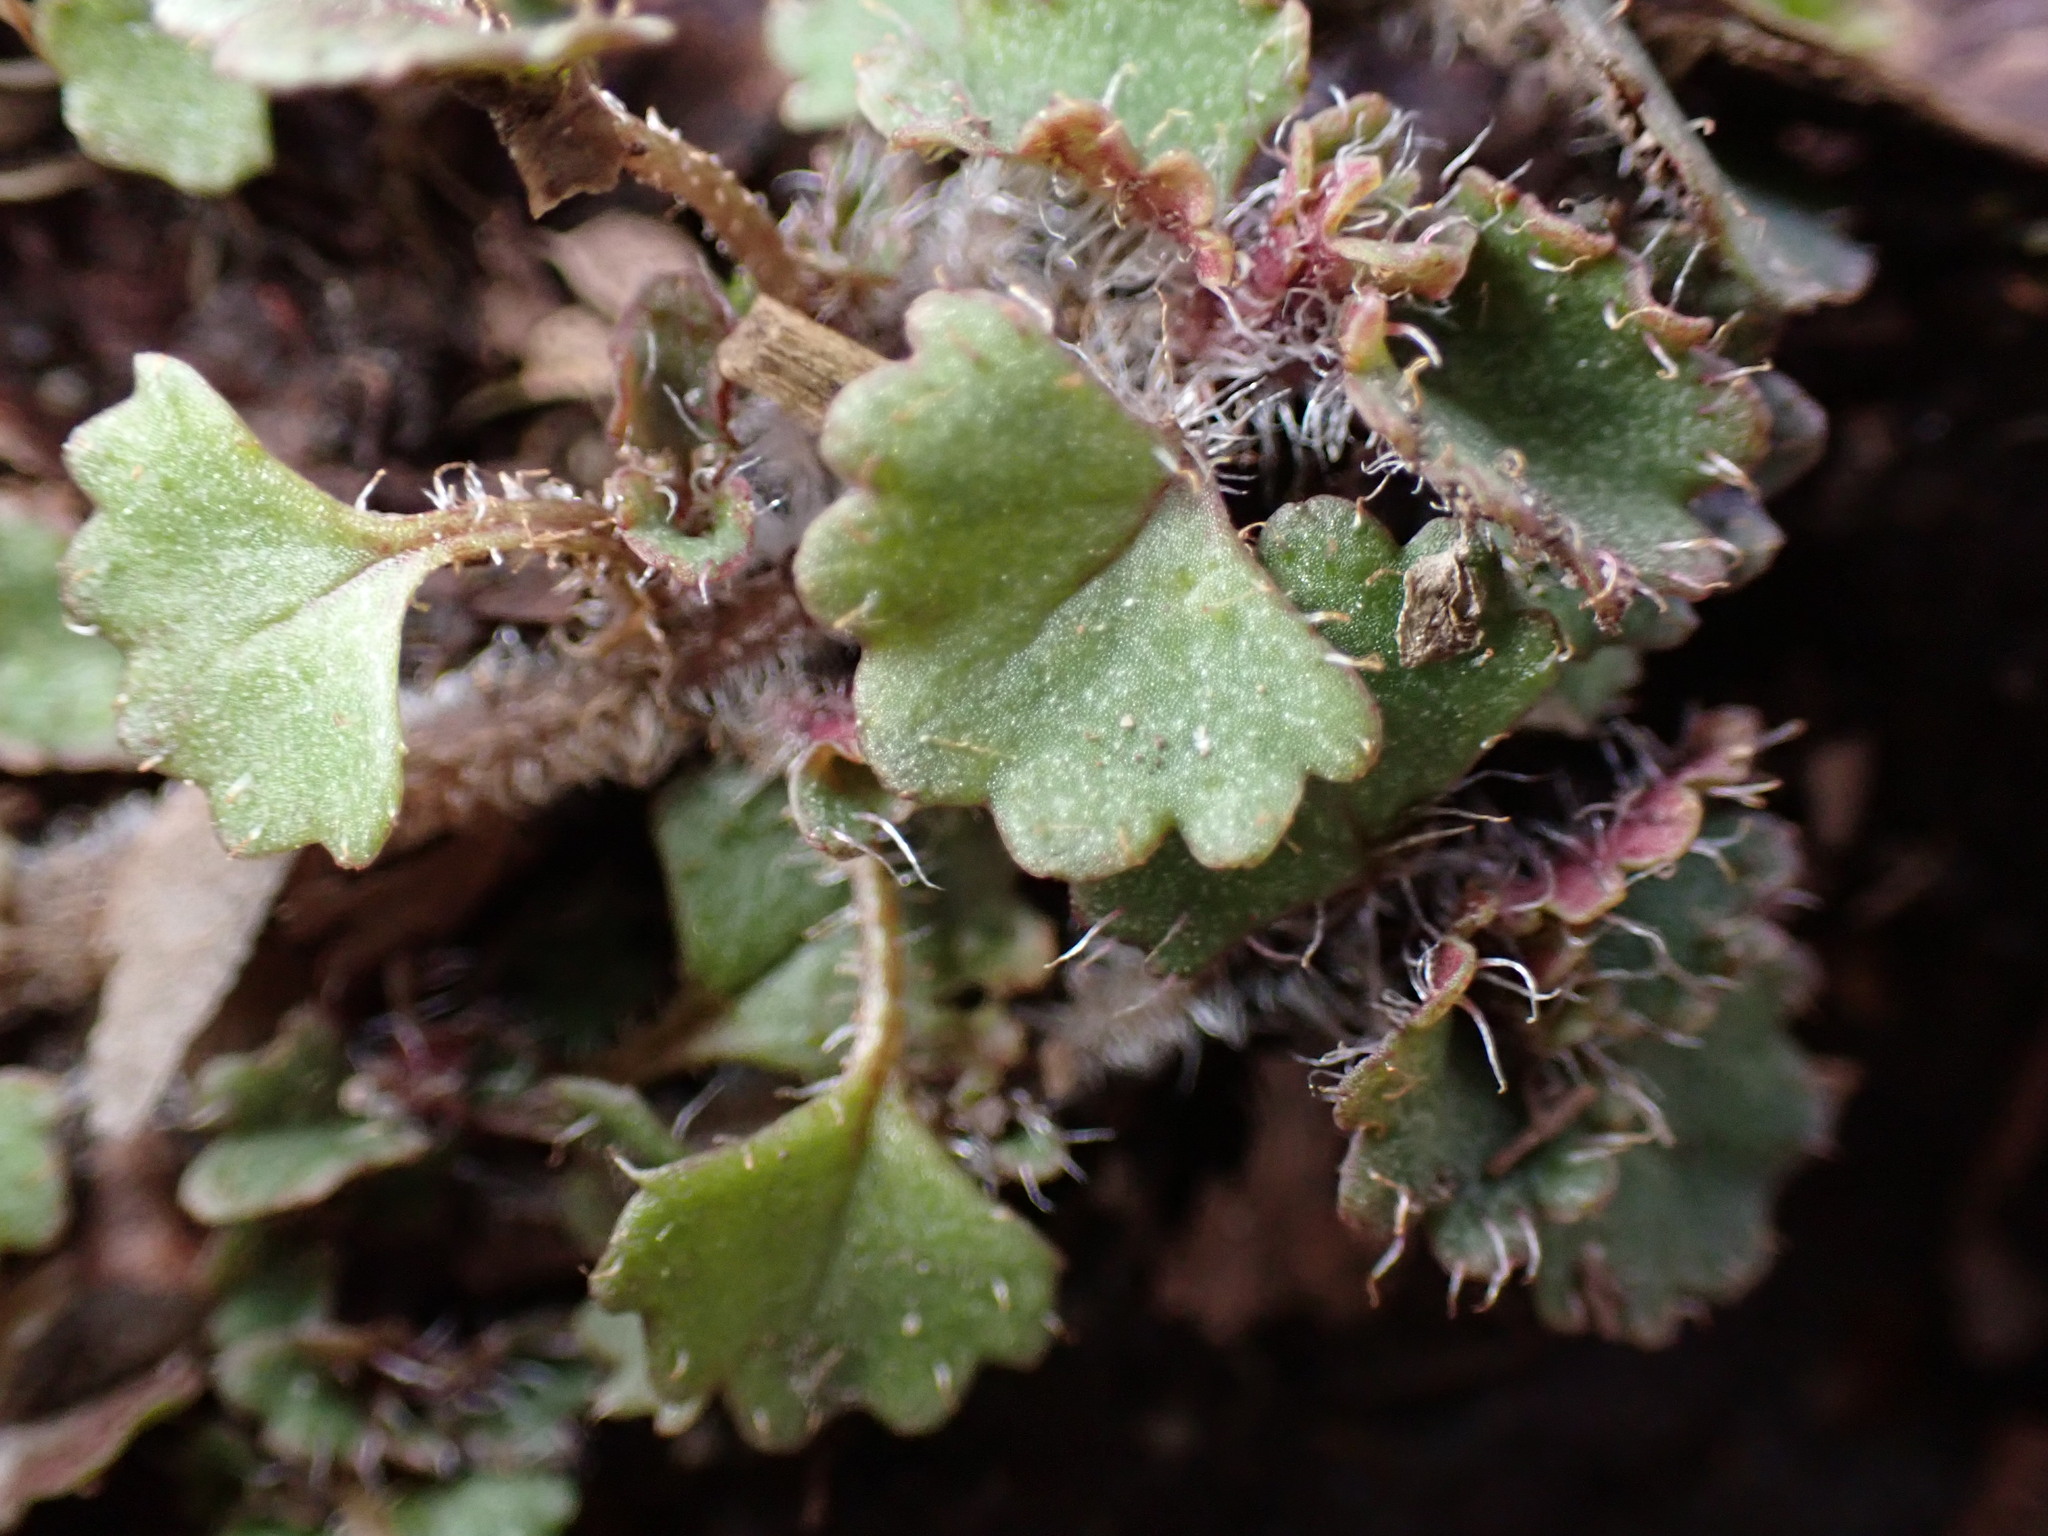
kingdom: Plantae
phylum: Tracheophyta
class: Magnoliopsida
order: Saxifragales
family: Saxifragaceae
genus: Chrysosplenium
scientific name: Chrysosplenium album
